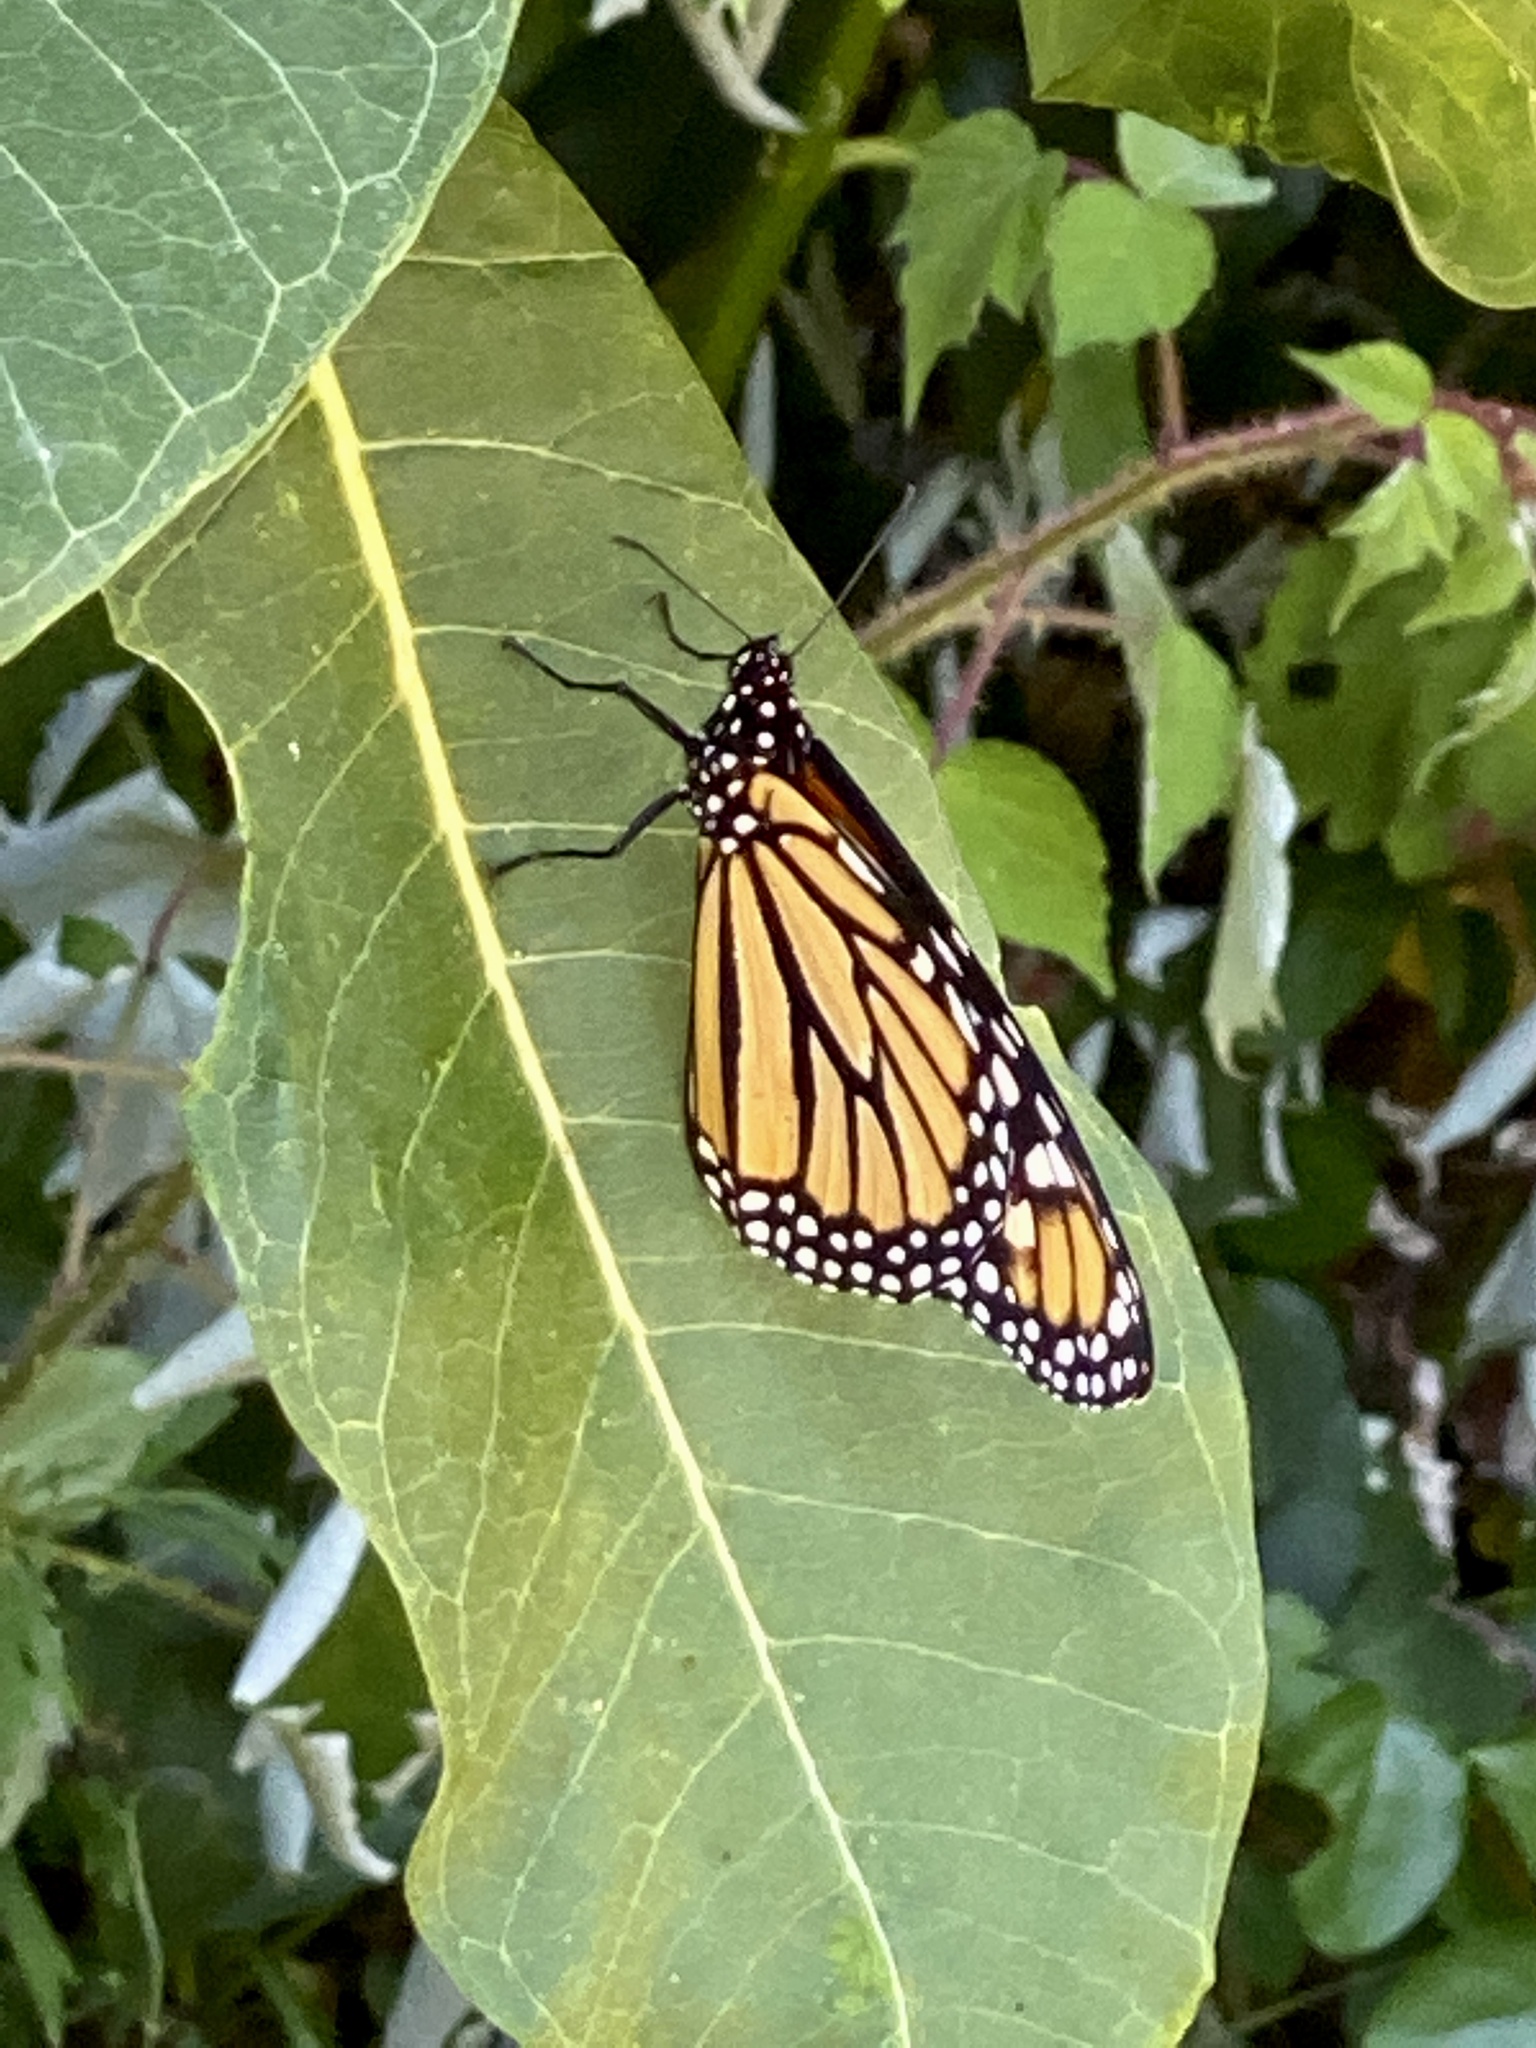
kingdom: Animalia
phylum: Arthropoda
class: Insecta
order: Lepidoptera
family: Nymphalidae
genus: Danaus
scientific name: Danaus plexippus
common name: Monarch
